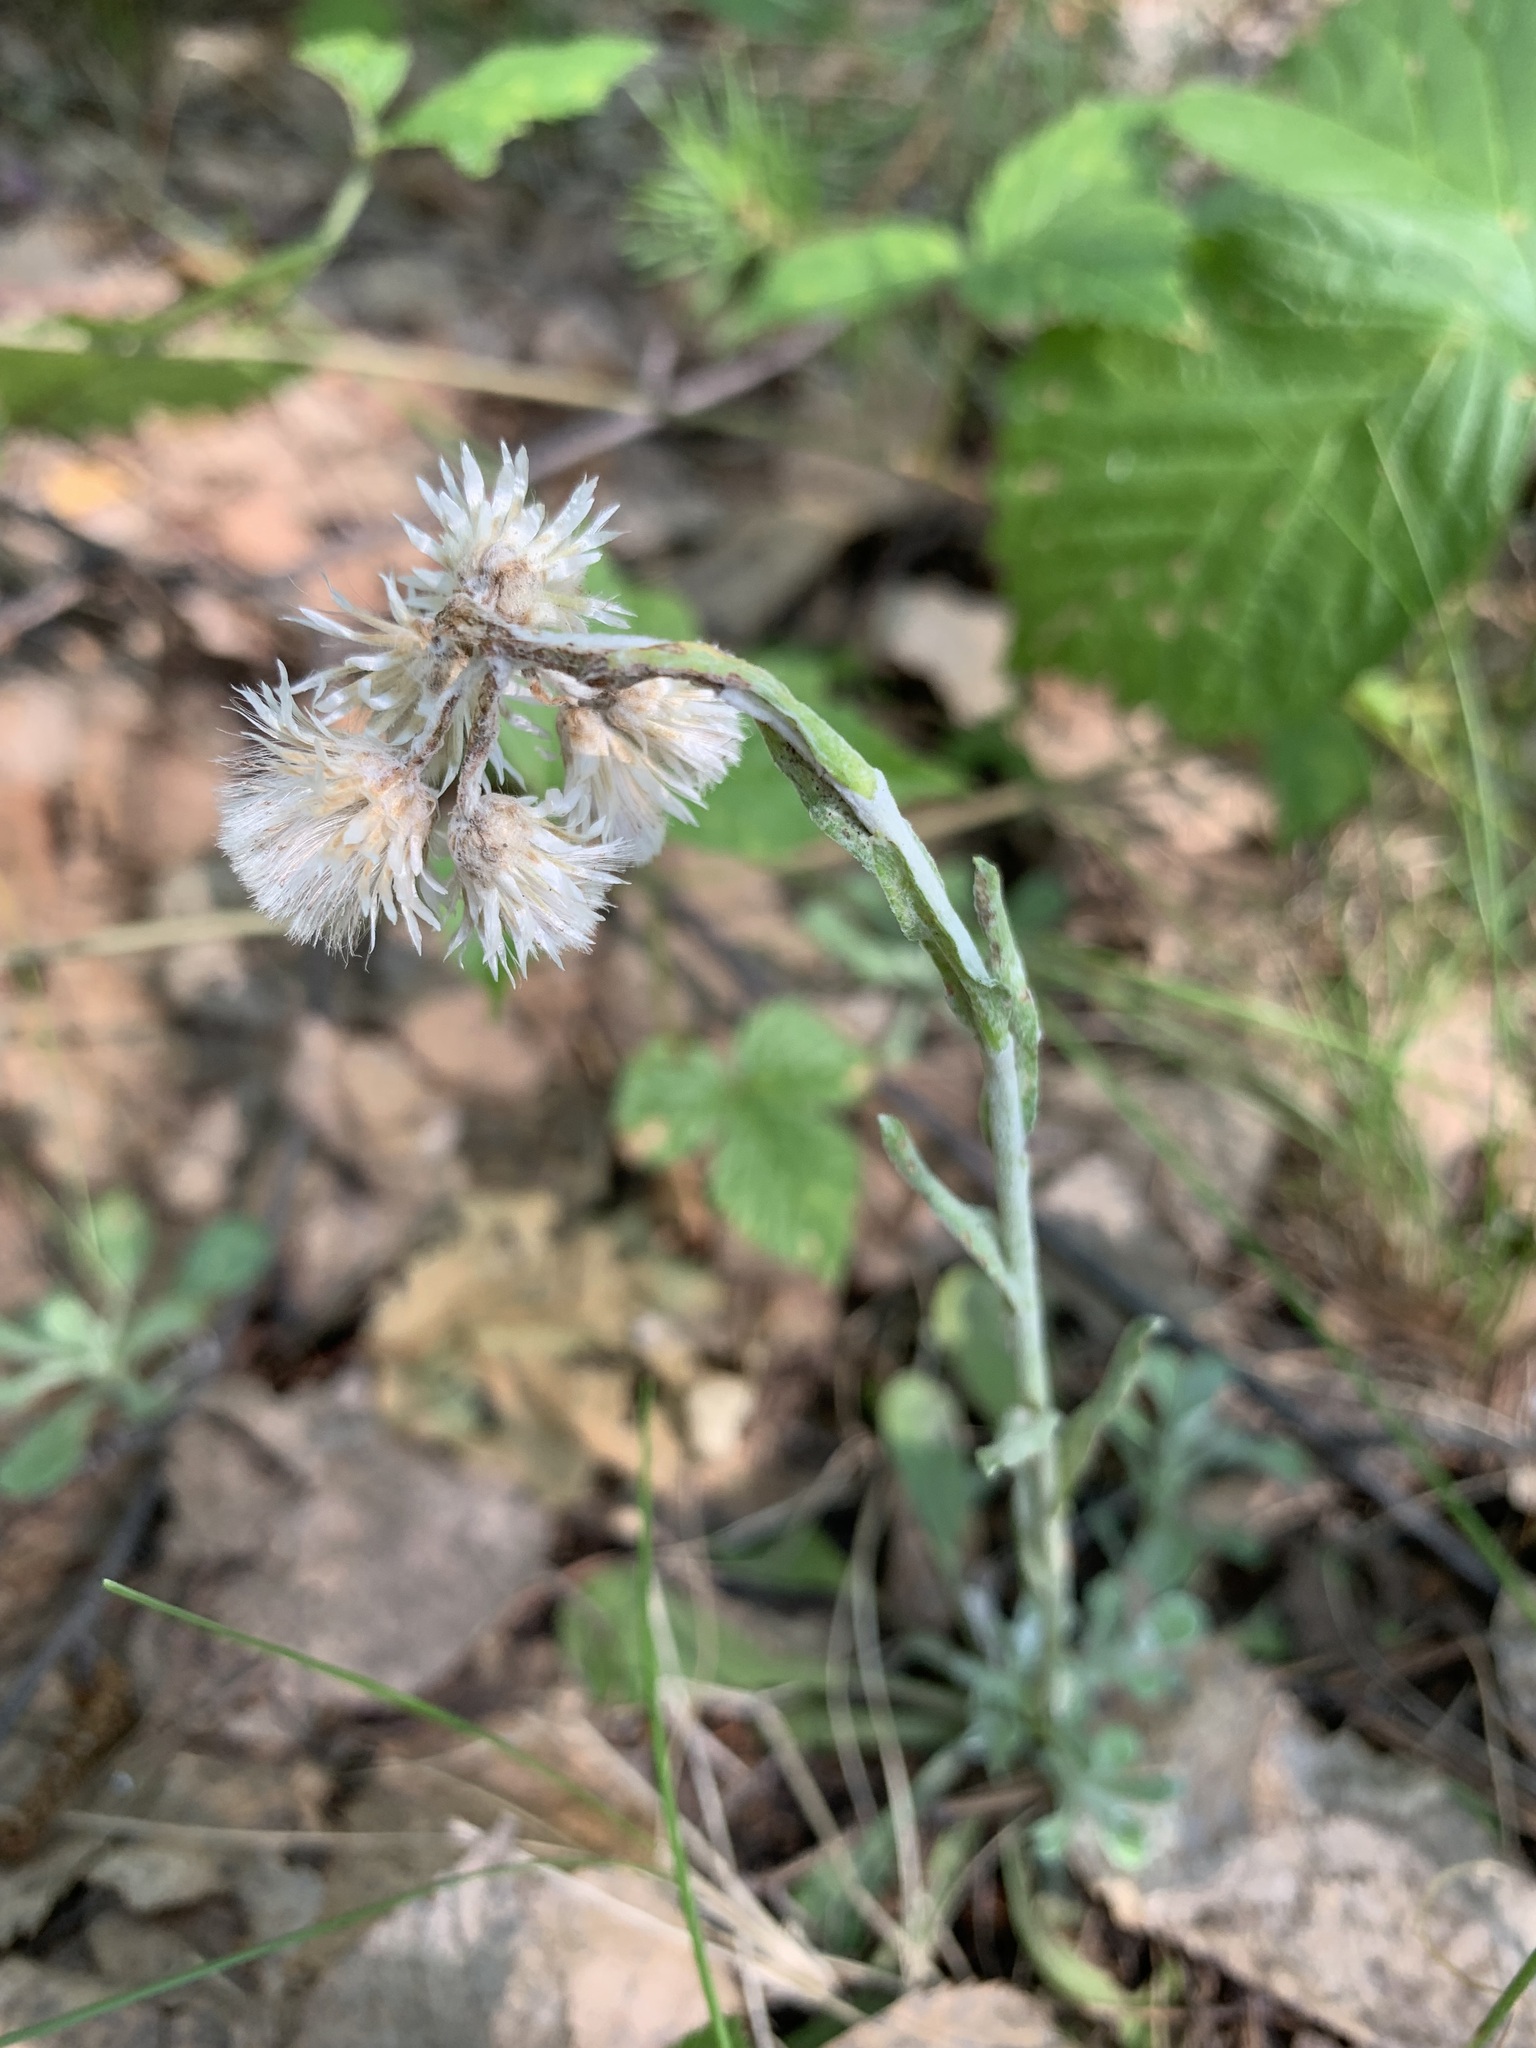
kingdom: Plantae
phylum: Tracheophyta
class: Magnoliopsida
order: Asterales
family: Asteraceae
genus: Antennaria
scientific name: Antennaria dioica
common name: Mountain everlasting
